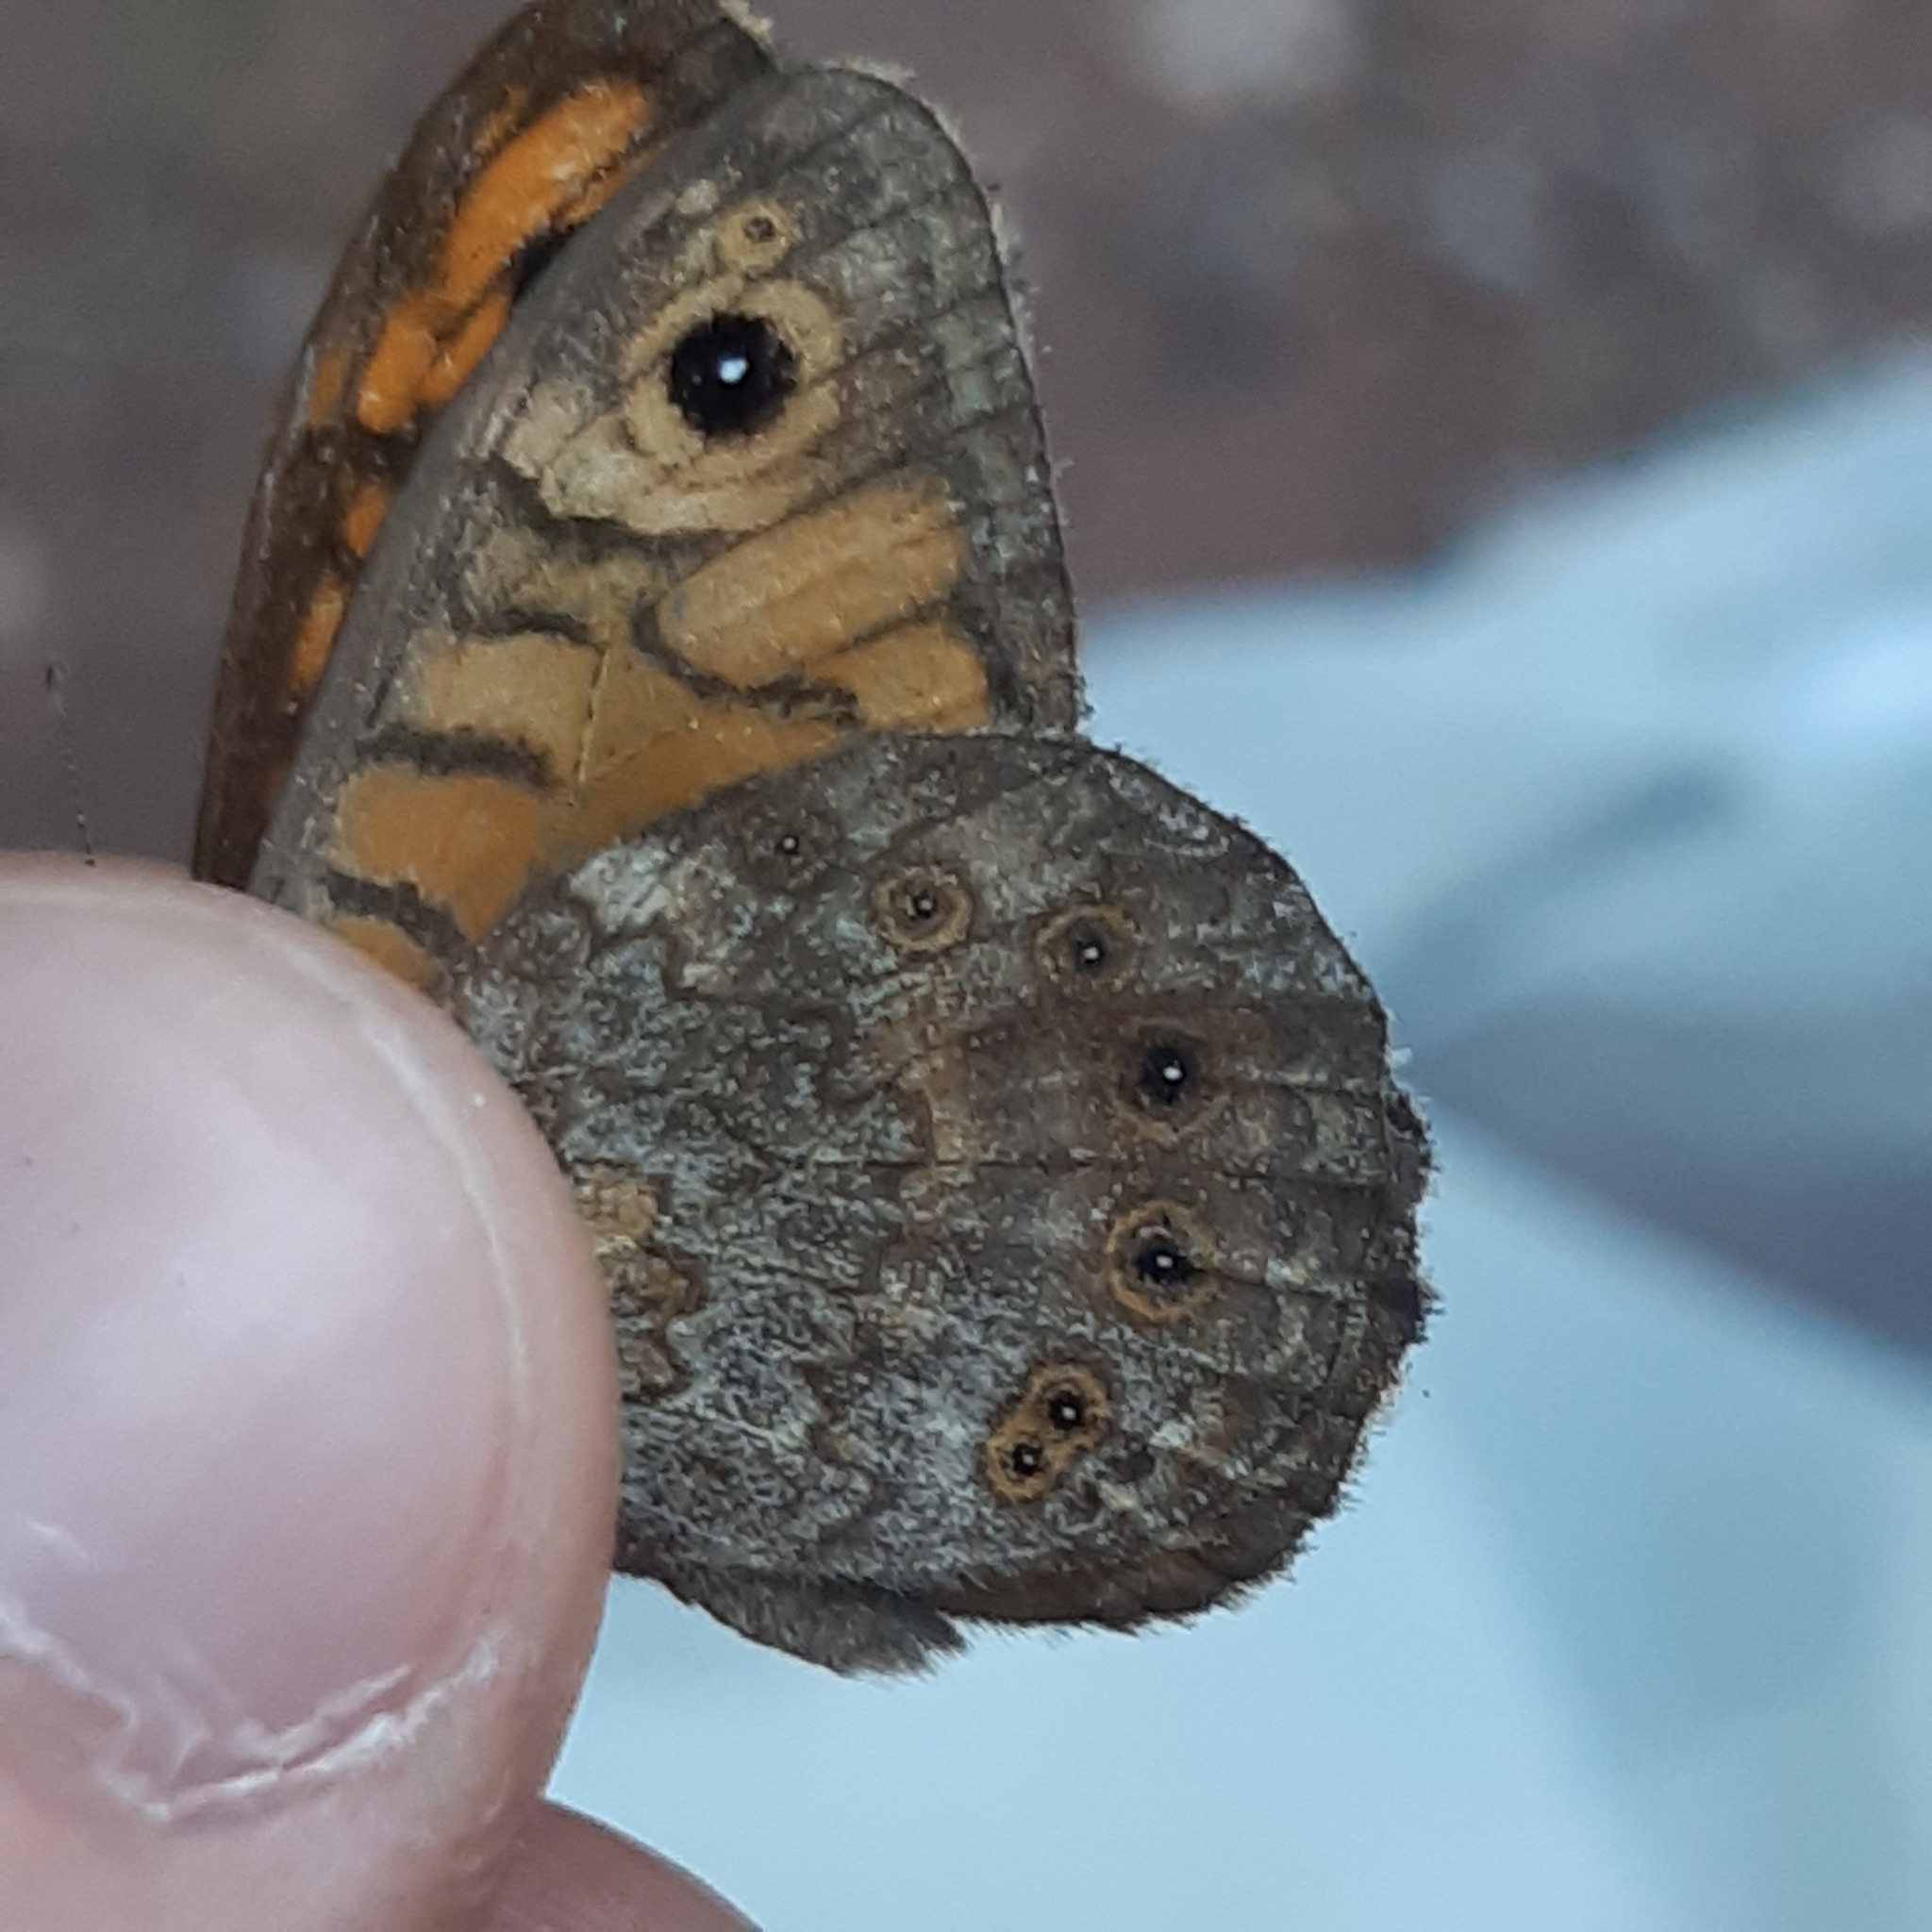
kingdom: Animalia
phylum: Arthropoda
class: Insecta
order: Lepidoptera
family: Nymphalidae
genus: Pararge
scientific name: Pararge Lasiommata megera
